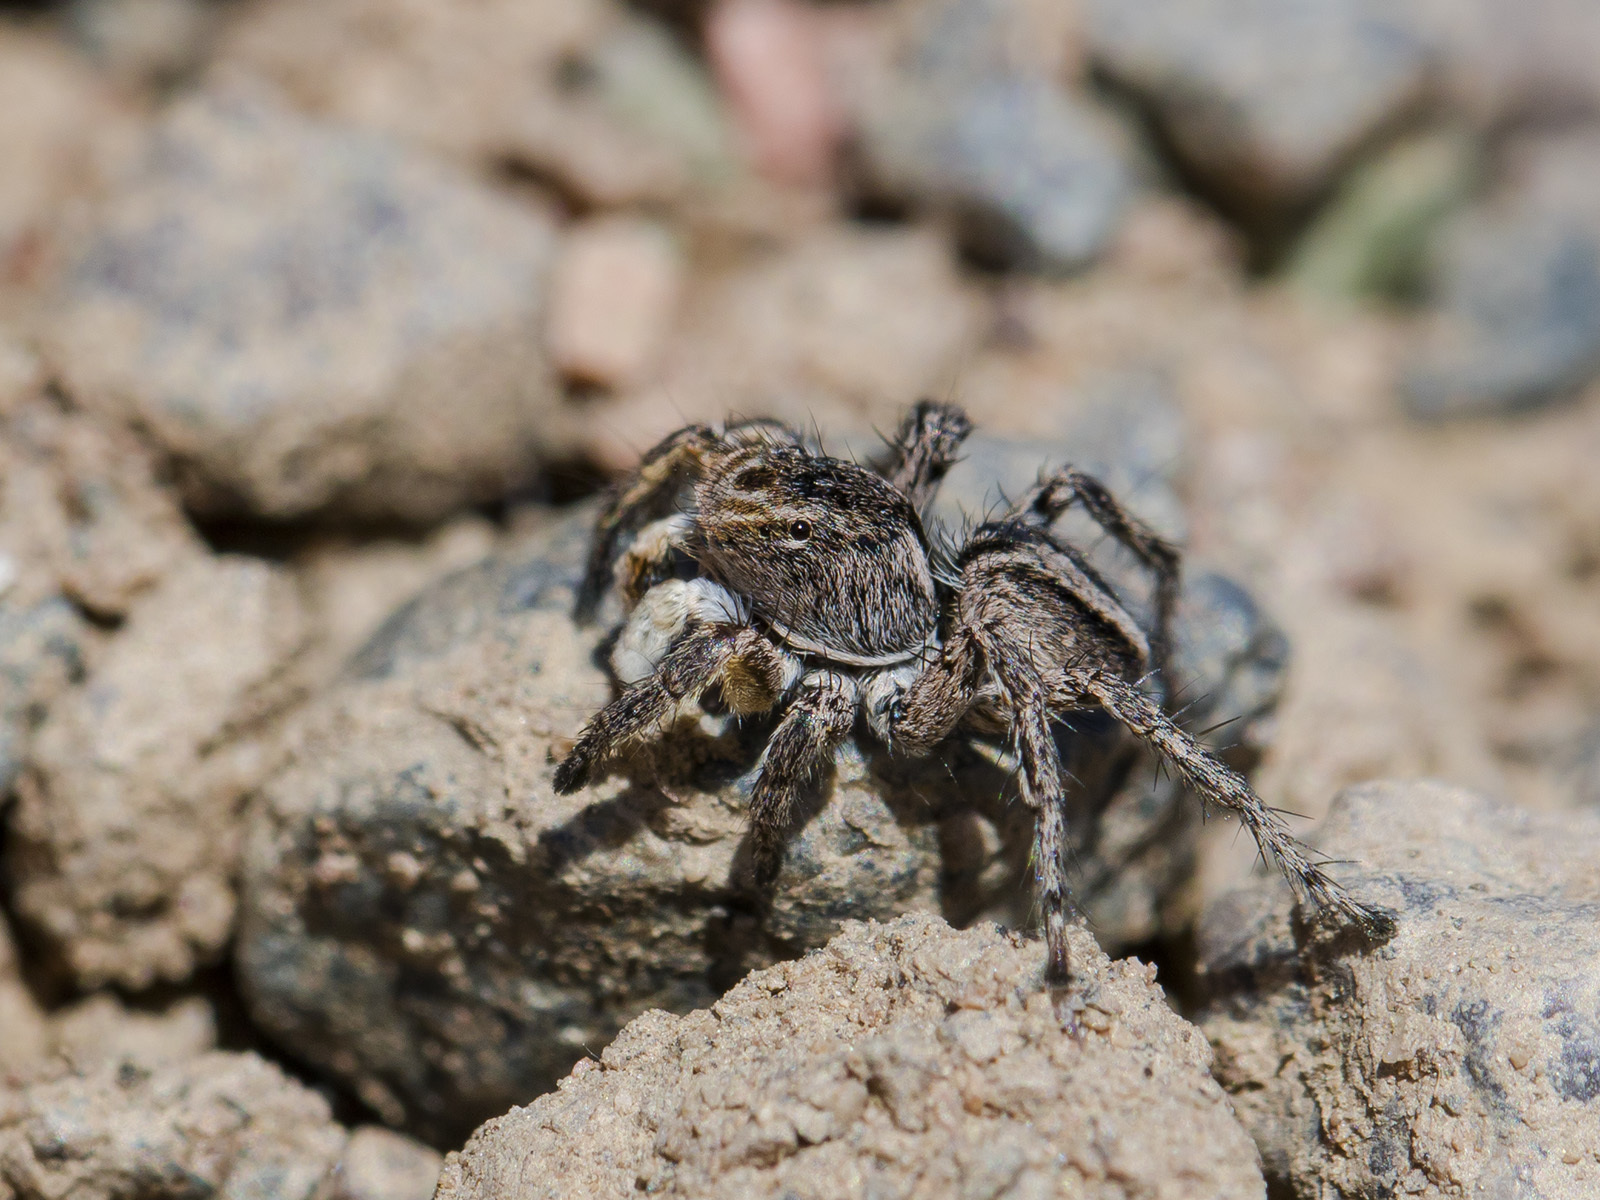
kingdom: Animalia
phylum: Arthropoda
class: Arachnida
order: Araneae
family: Salticidae
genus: Aelurillus
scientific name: Aelurillus v-insignitus
